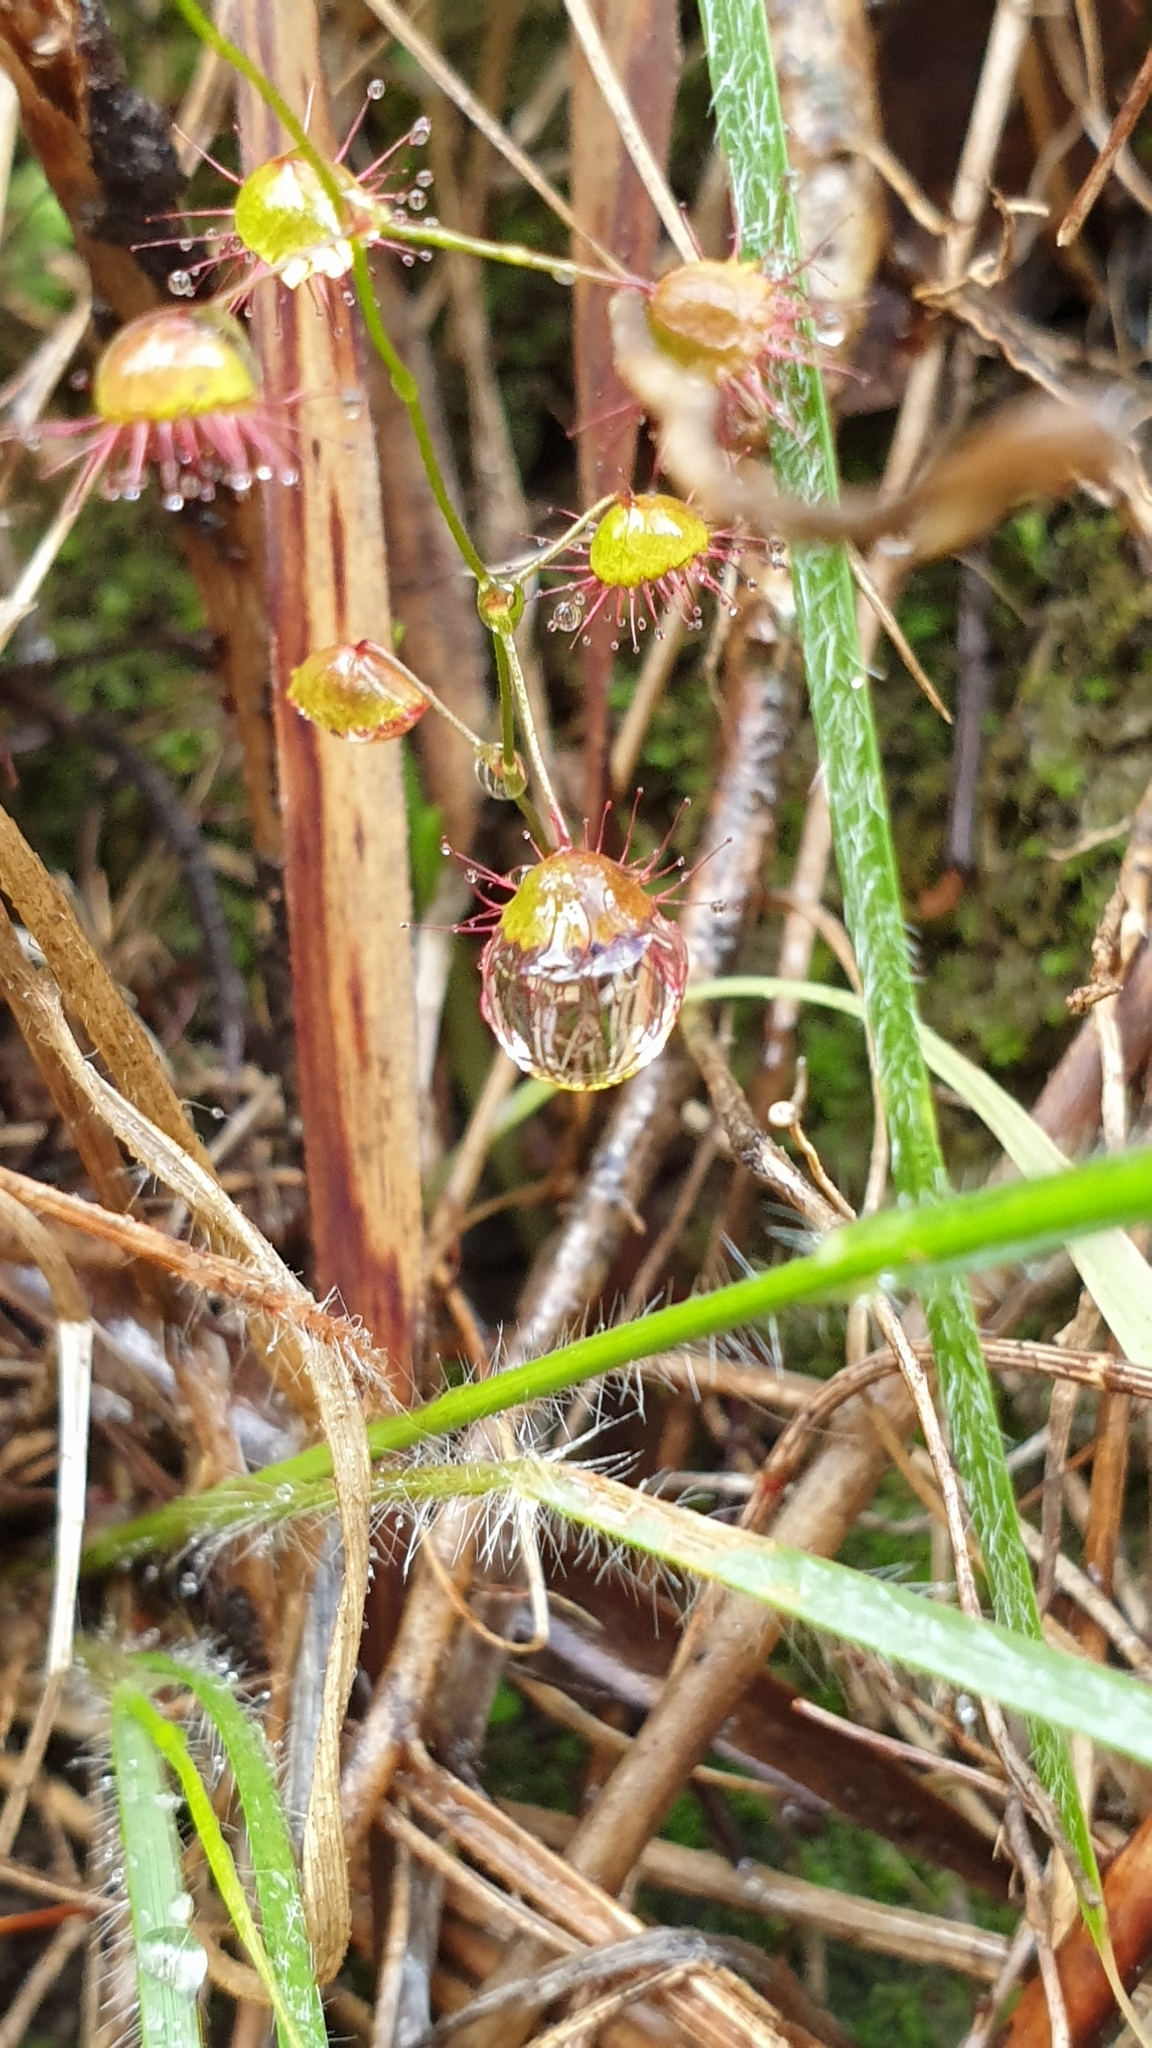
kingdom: Plantae
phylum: Tracheophyta
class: Magnoliopsida
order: Caryophyllales
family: Droseraceae
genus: Drosera
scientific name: Drosera planchonii
